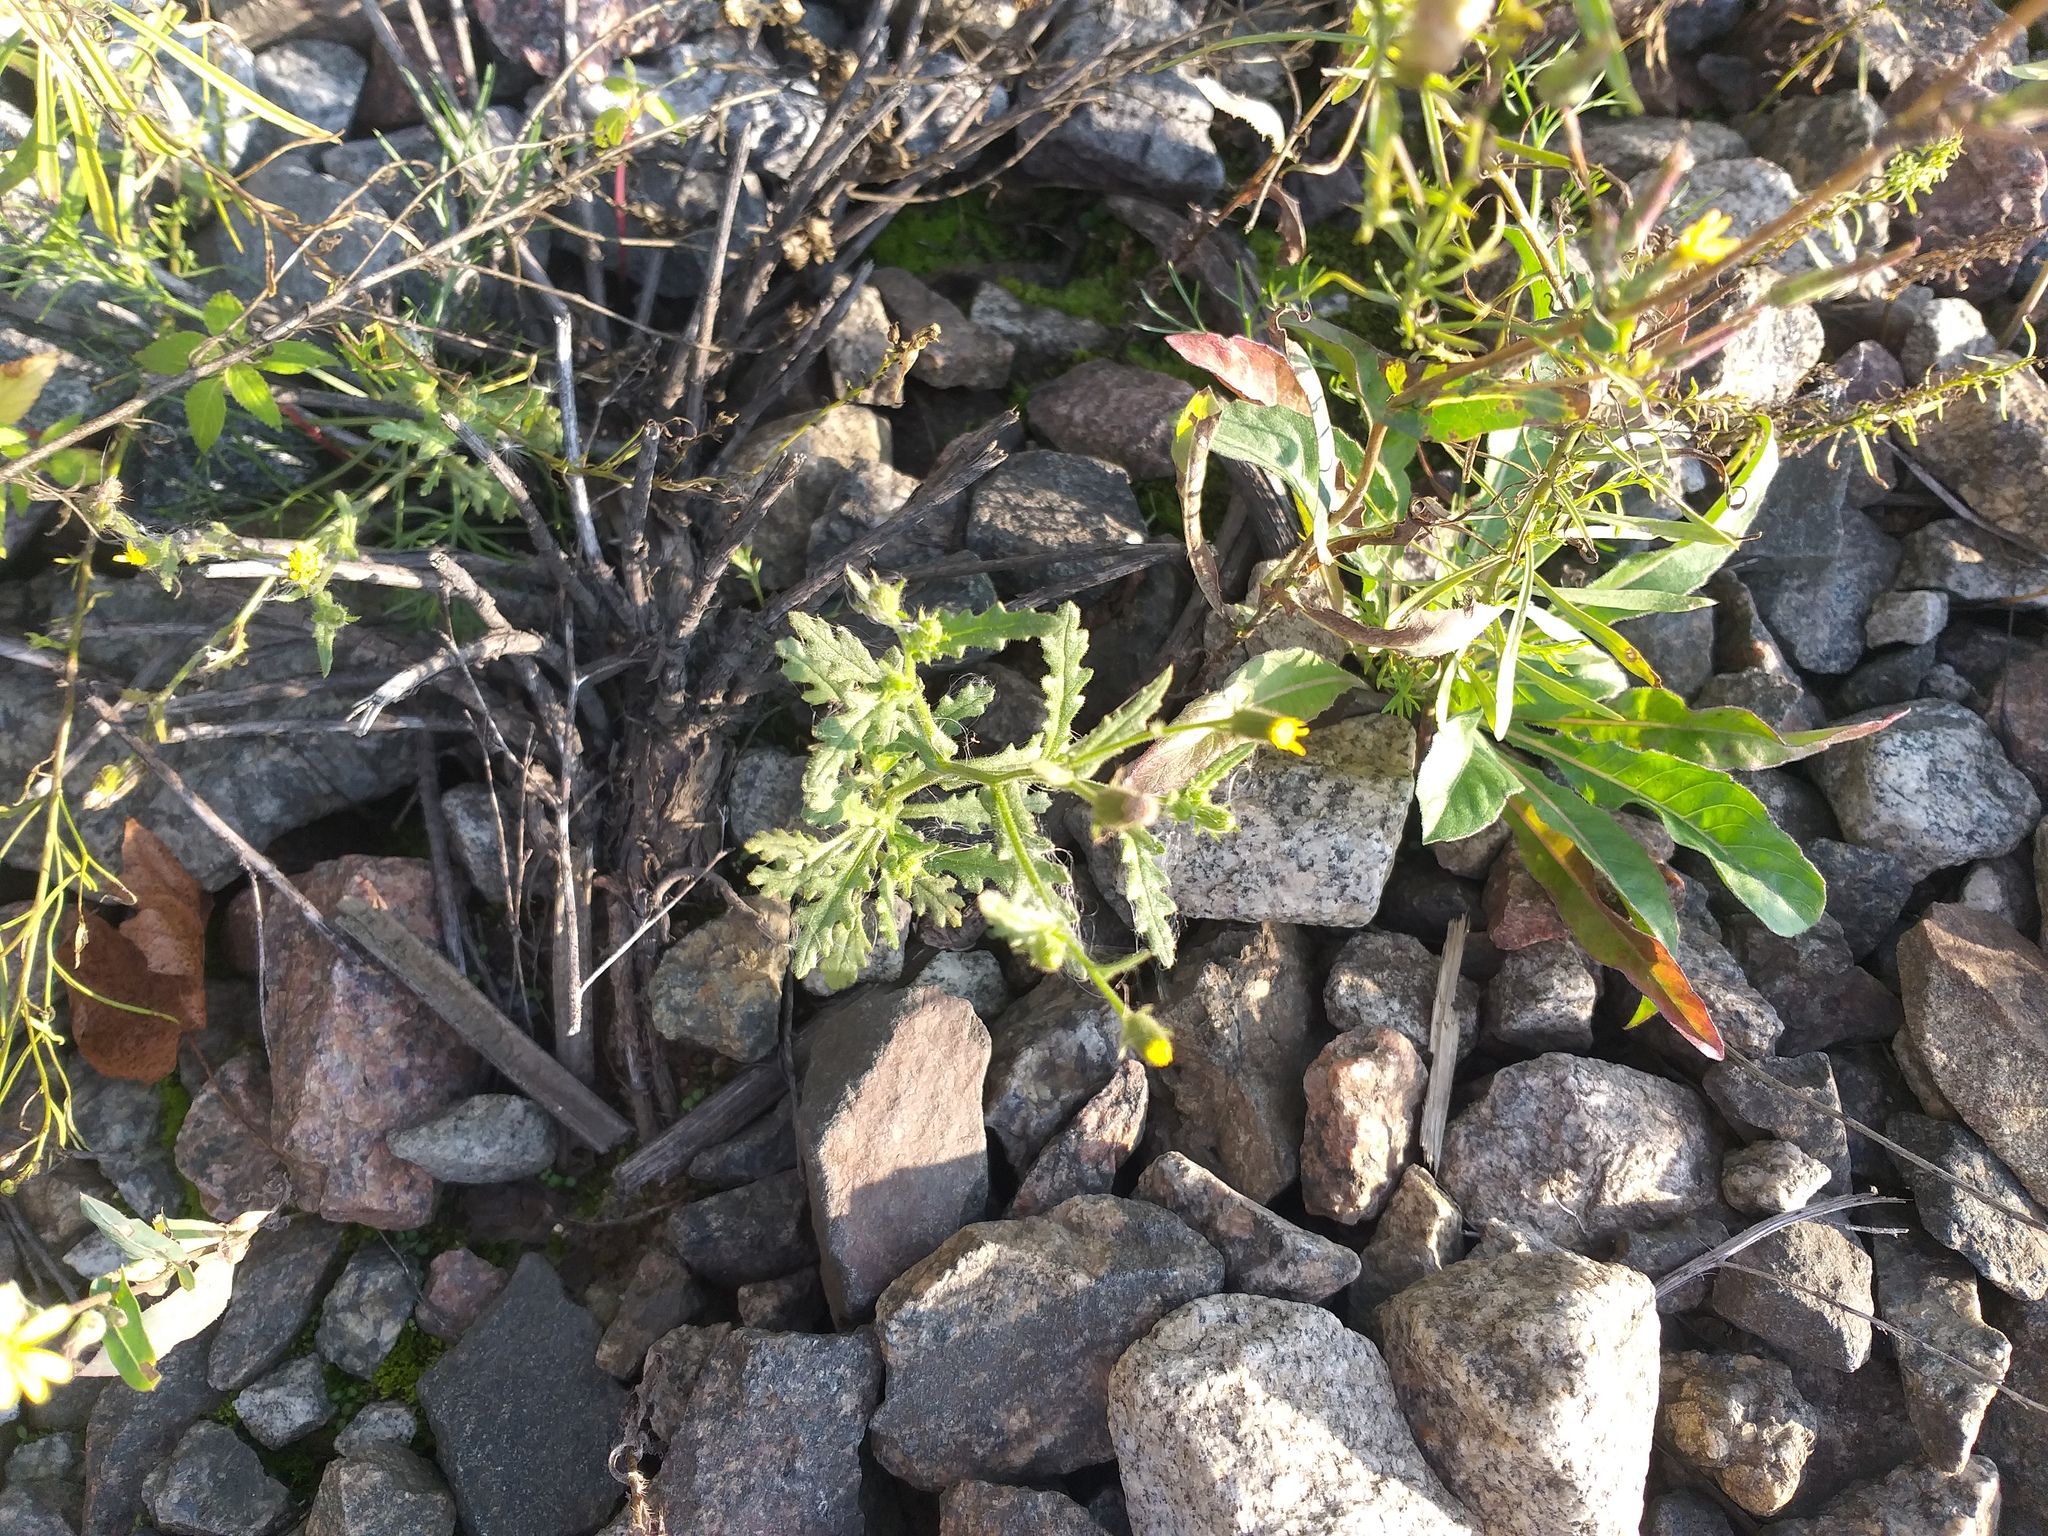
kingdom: Plantae
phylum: Tracheophyta
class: Magnoliopsida
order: Asterales
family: Asteraceae
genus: Senecio
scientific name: Senecio viscosus
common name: Sticky groundsel
